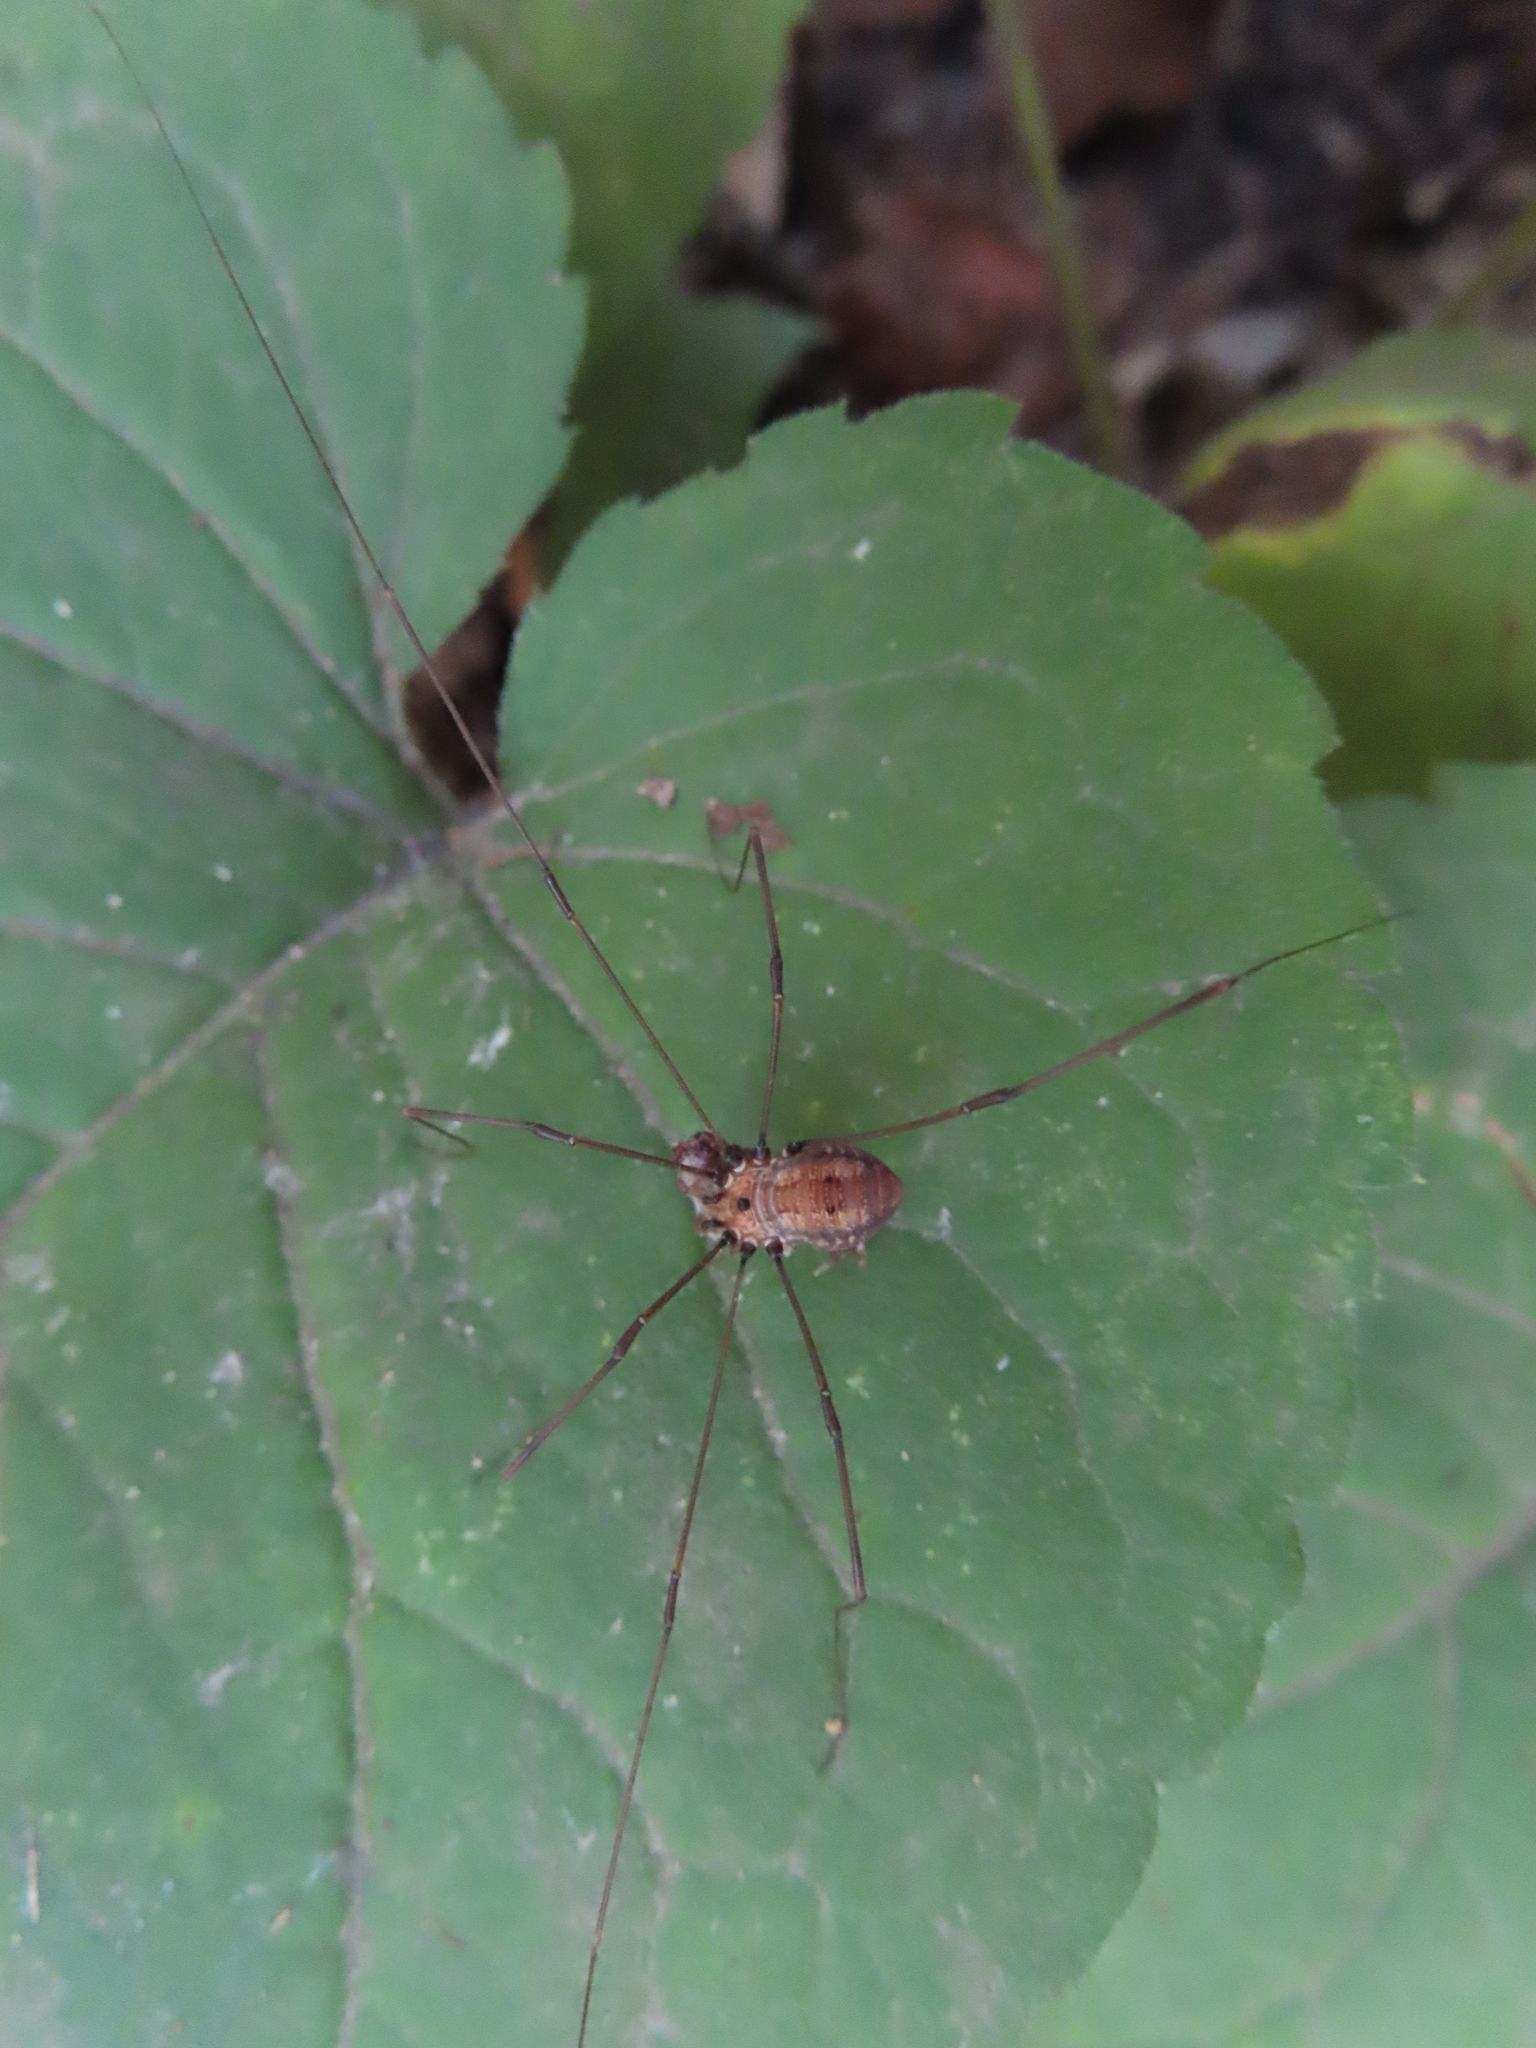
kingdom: Animalia
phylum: Arthropoda
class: Arachnida
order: Opiliones
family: Sclerosomatidae
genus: Leiobunum
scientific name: Leiobunum nigropalpi
